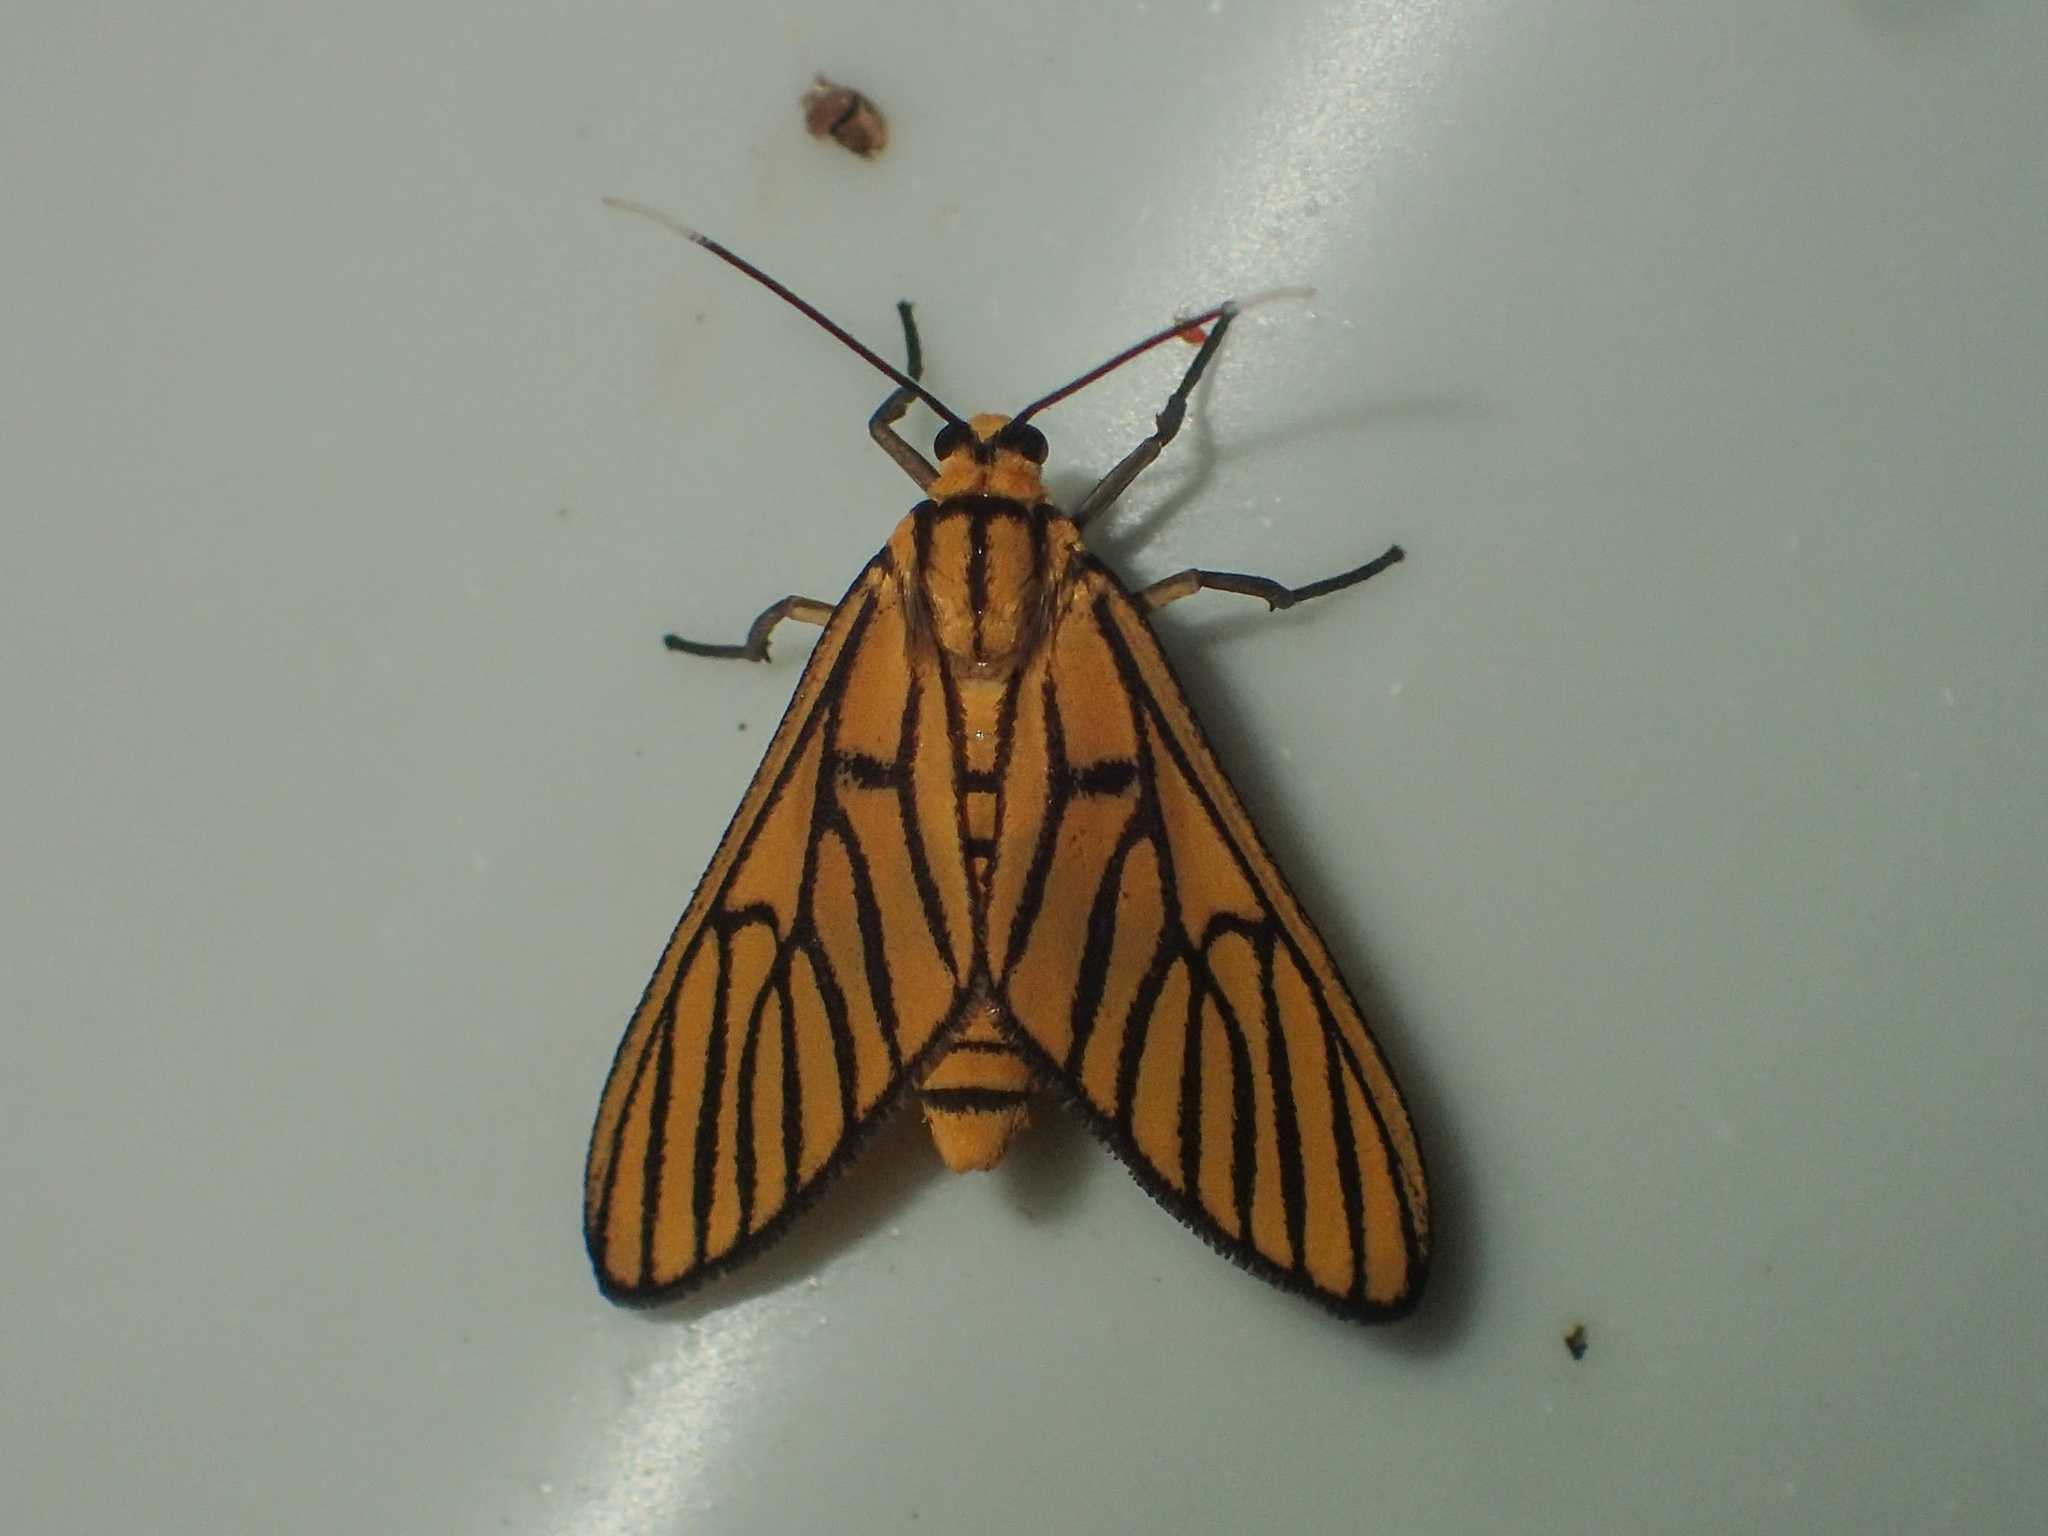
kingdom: Animalia
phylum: Arthropoda
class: Insecta
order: Lepidoptera
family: Erebidae
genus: Amata
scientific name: Amata tigrina
